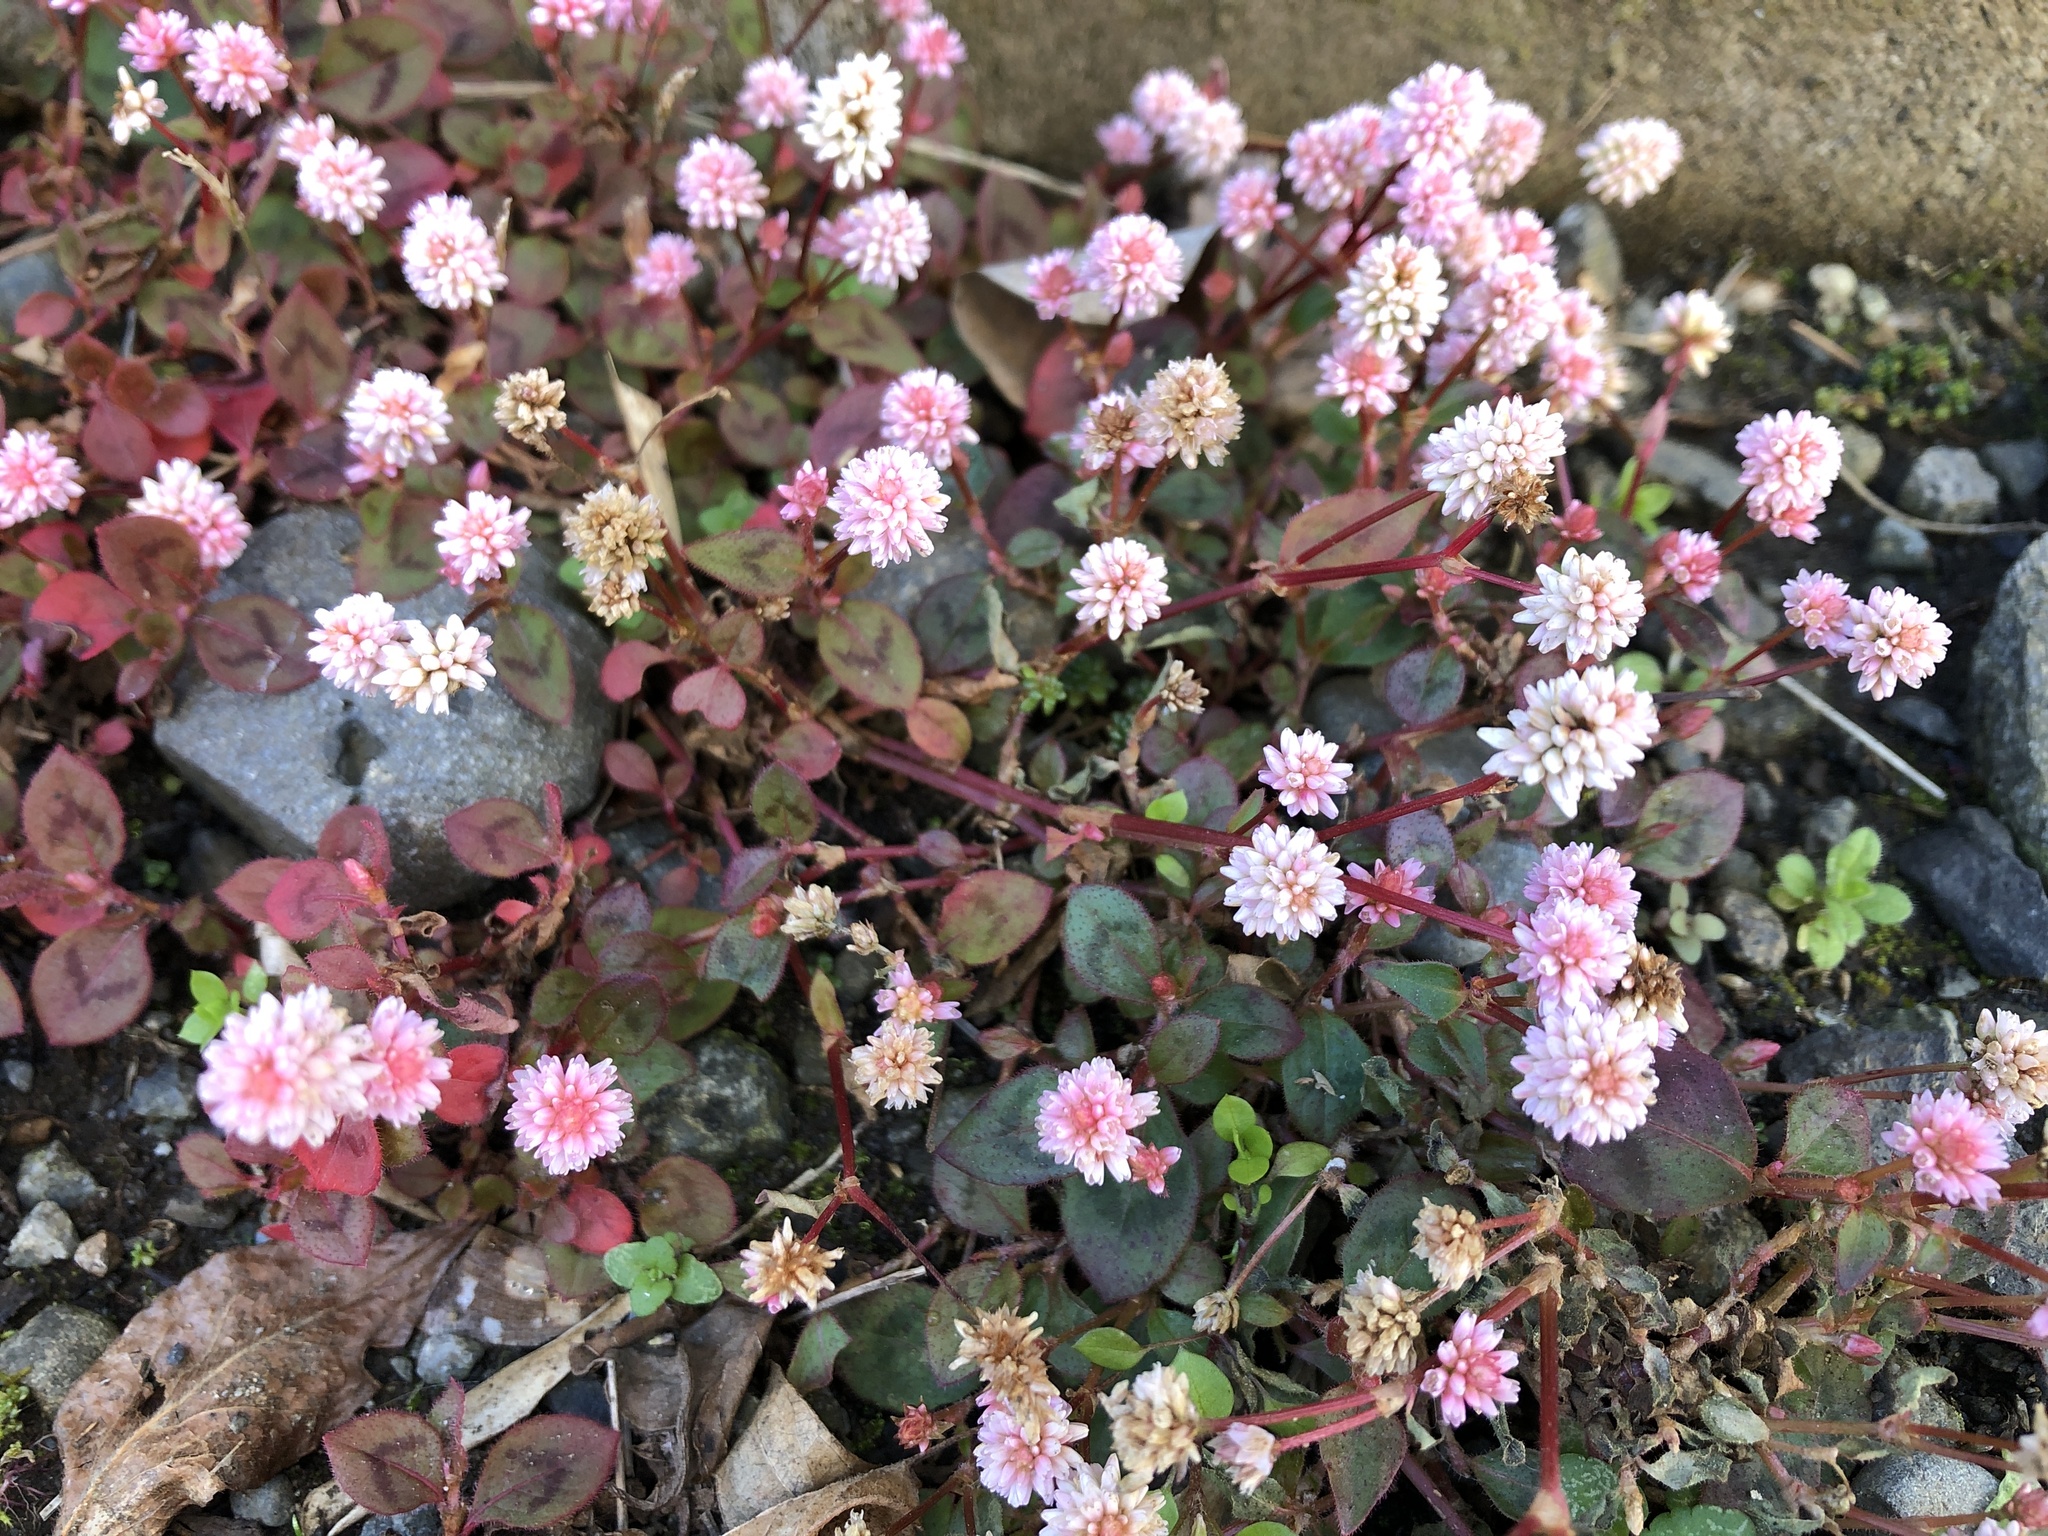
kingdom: Plantae
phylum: Tracheophyta
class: Magnoliopsida
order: Caryophyllales
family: Polygonaceae
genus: Persicaria
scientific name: Persicaria capitata
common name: Pinkhead smartweed
